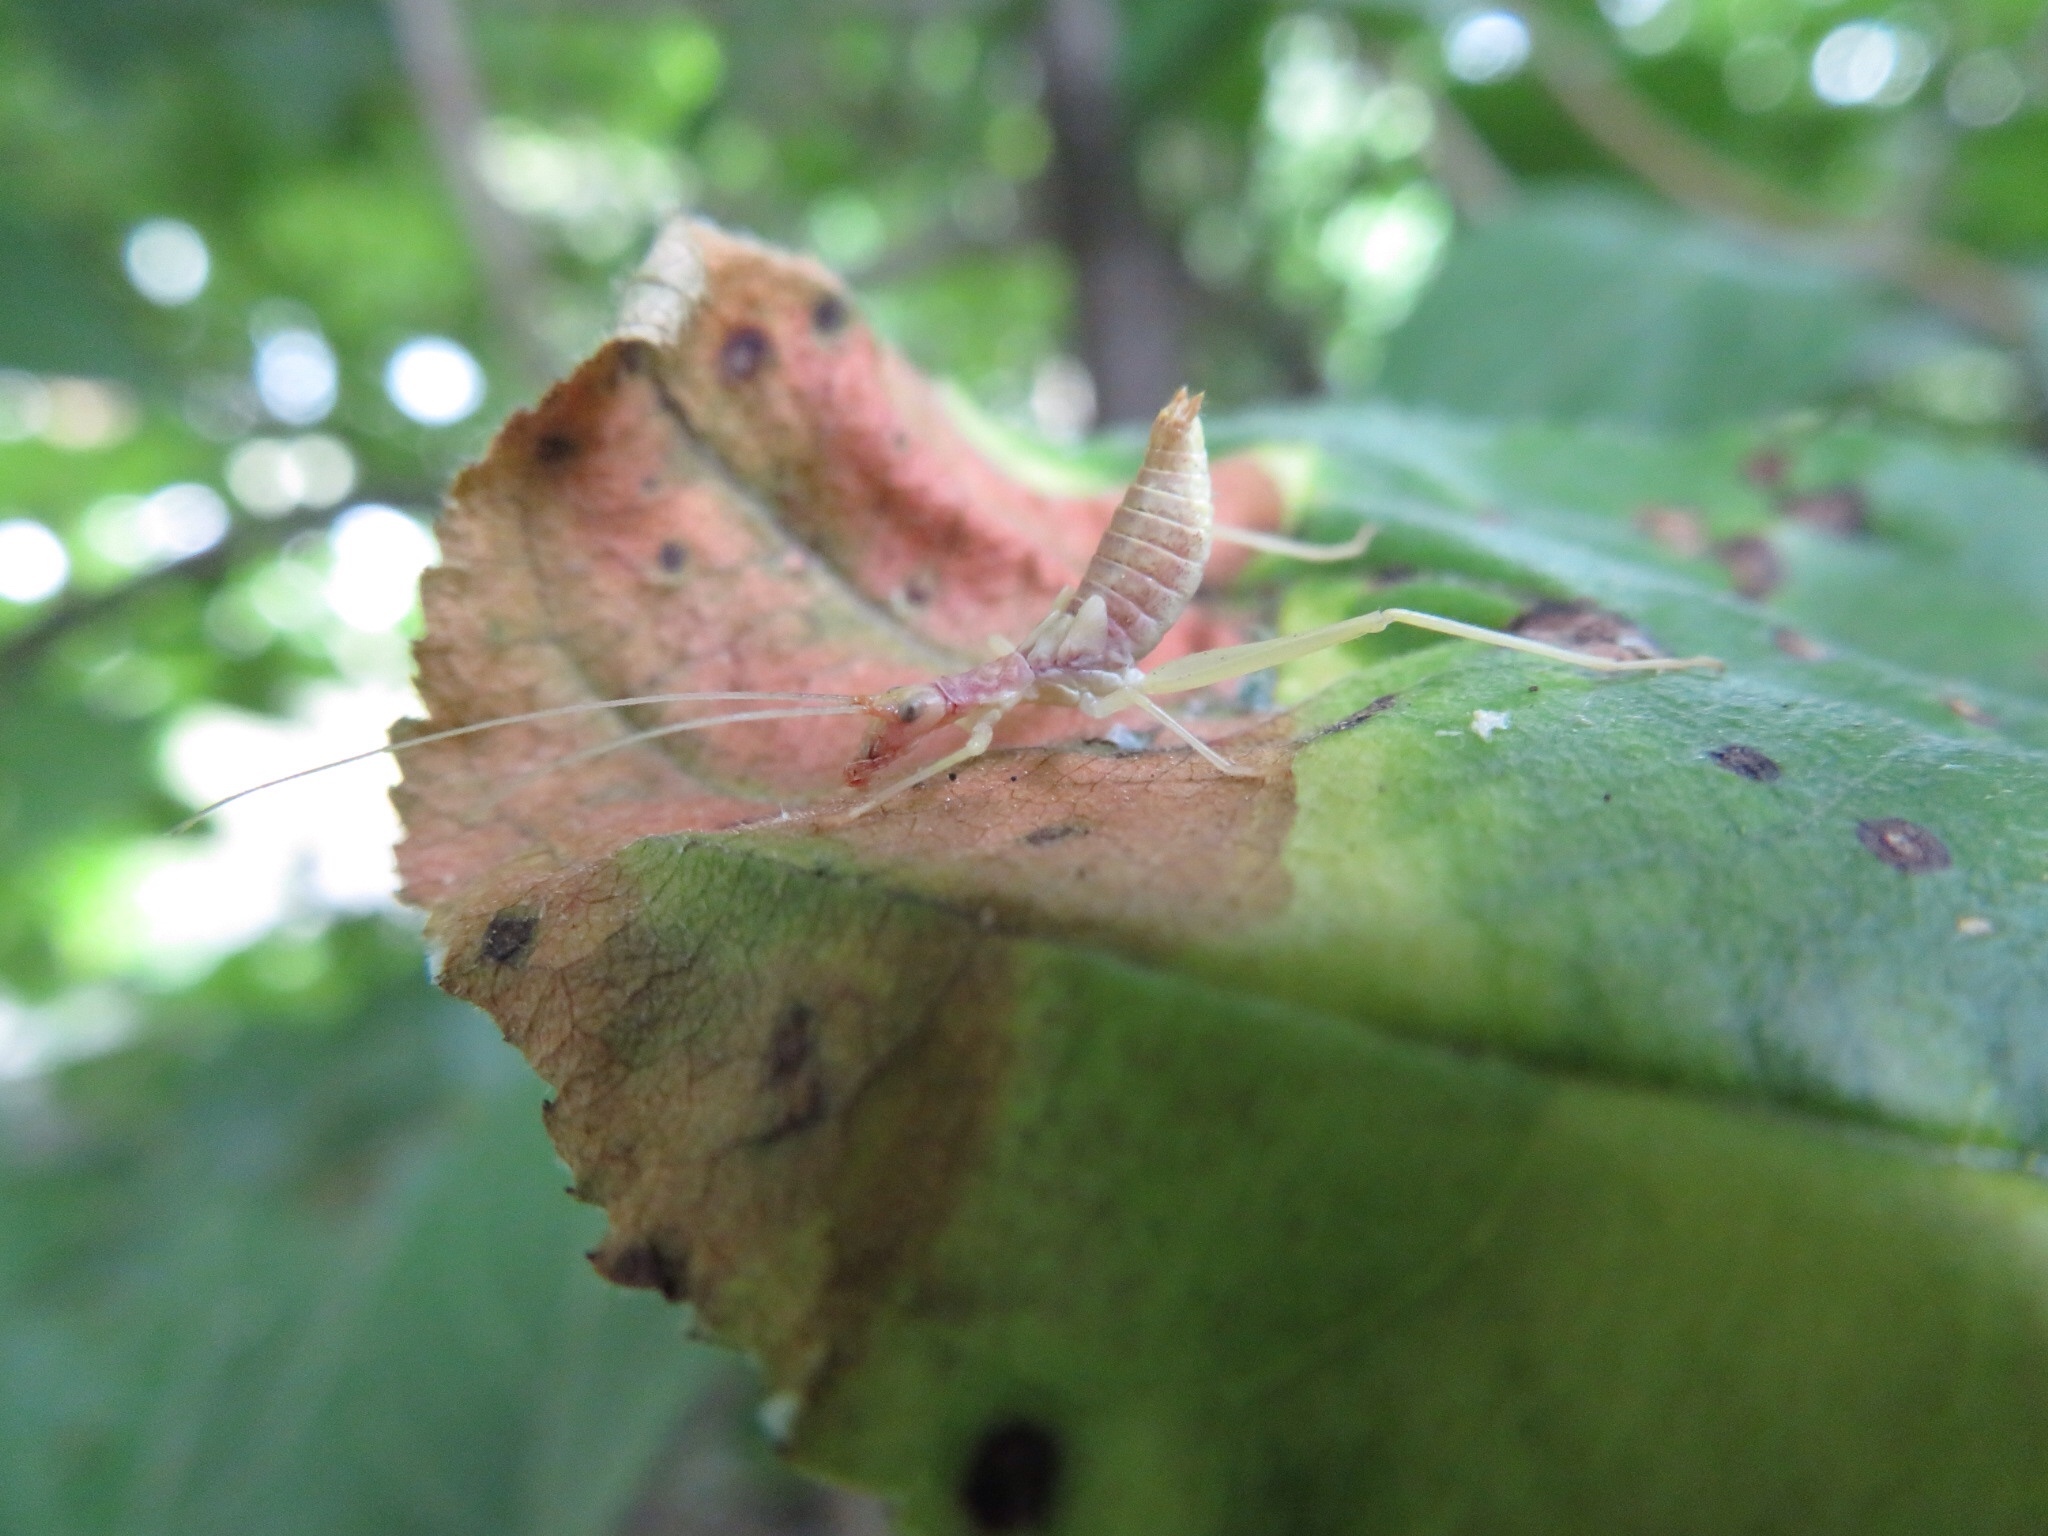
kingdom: Animalia
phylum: Arthropoda
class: Insecta
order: Orthoptera
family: Gryllidae
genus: Neoxabea
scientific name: Neoxabea bipunctata
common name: Two-spotted tree cricket
